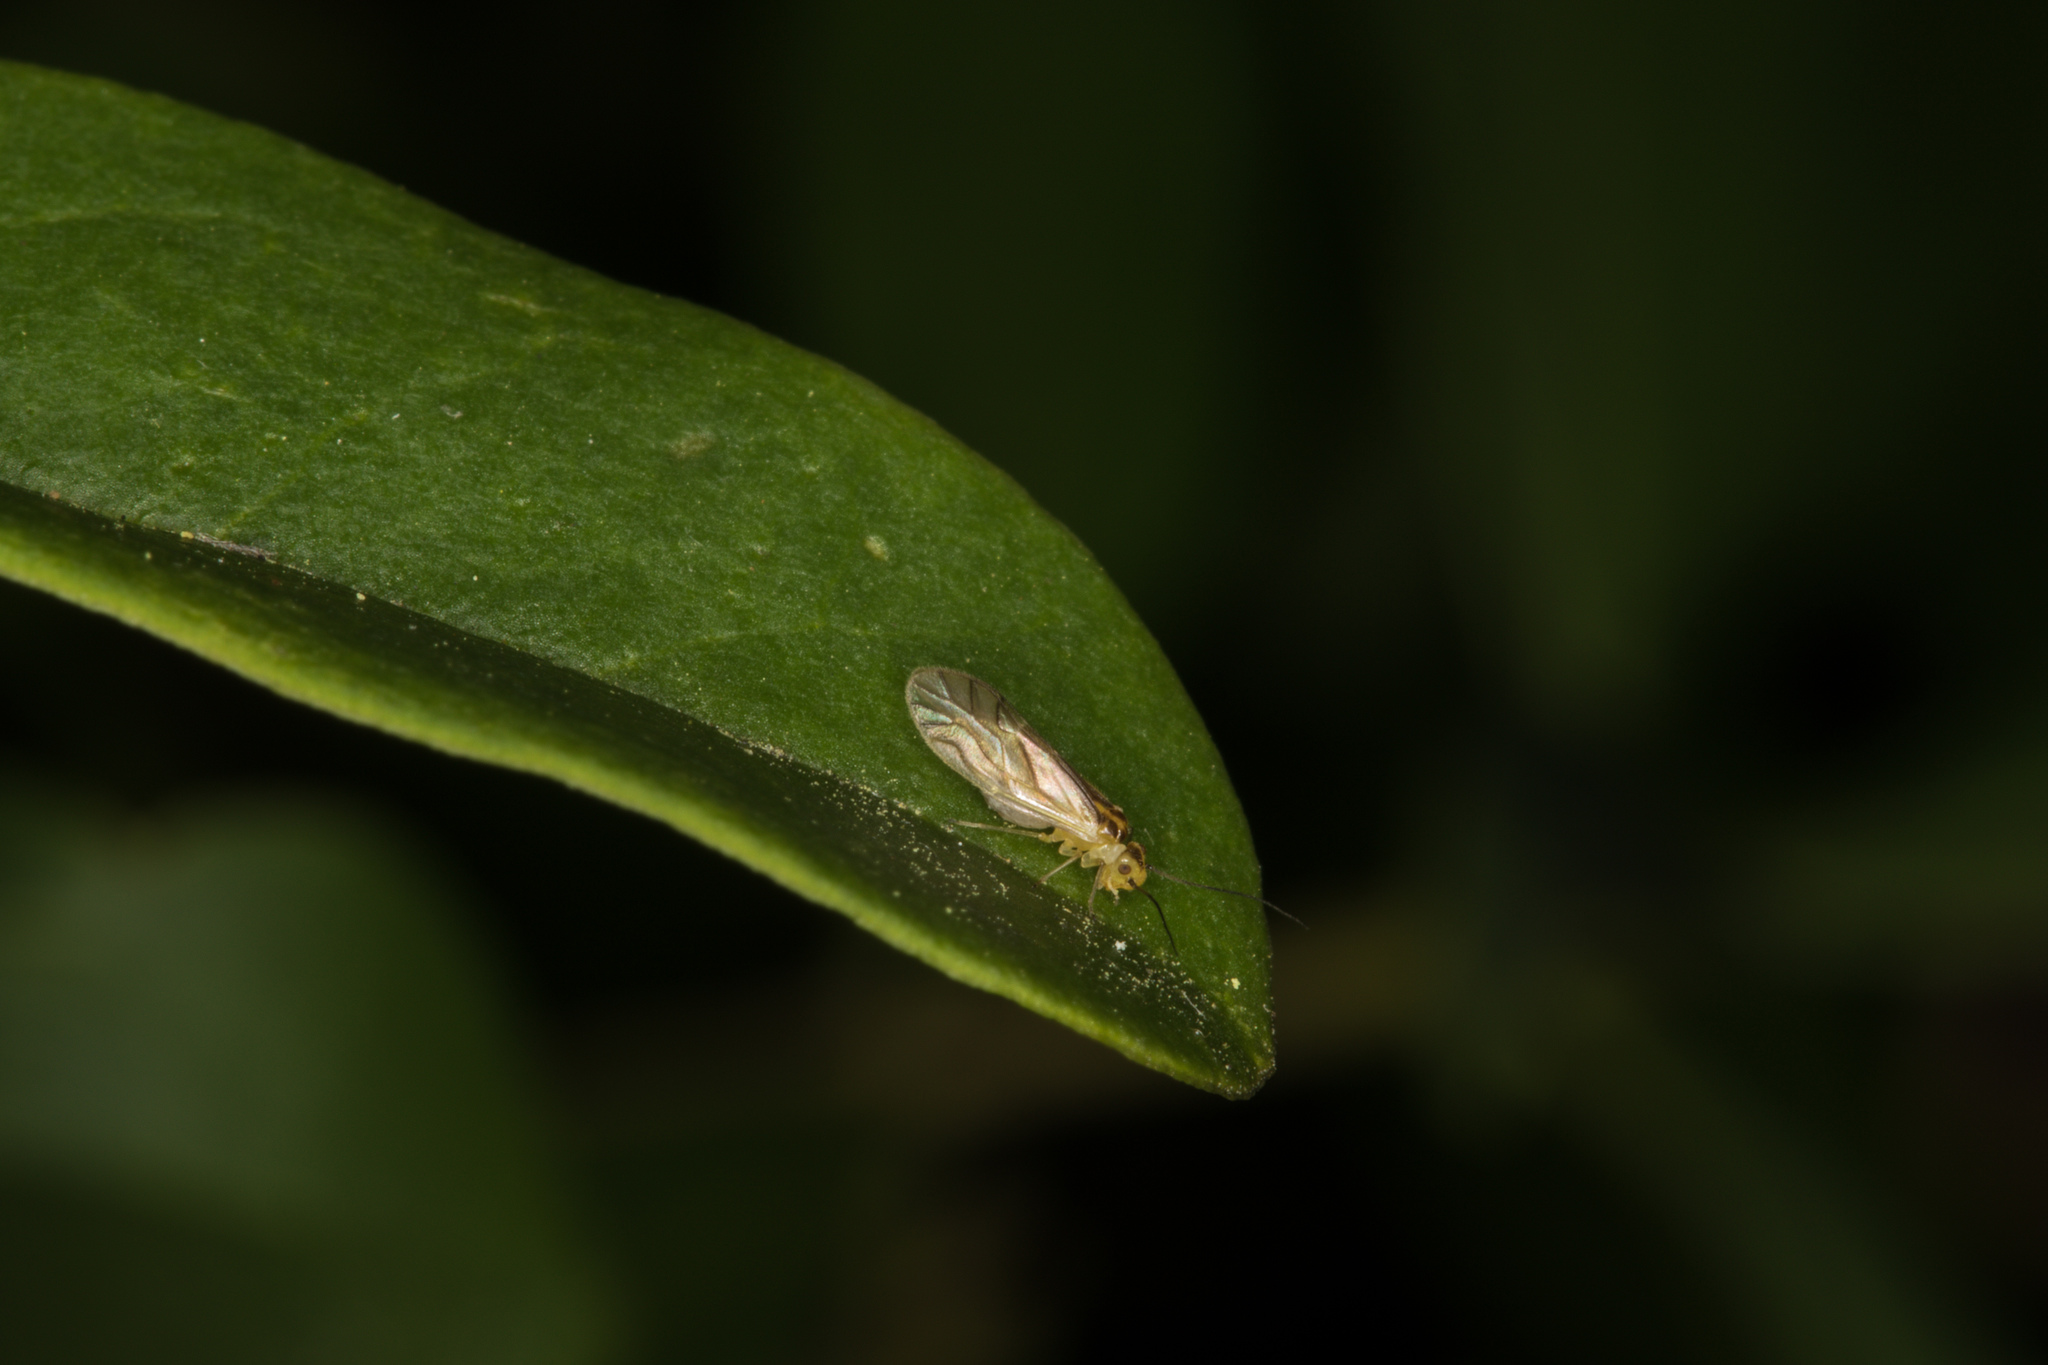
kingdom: Animalia
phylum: Arthropoda
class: Insecta
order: Psocodea
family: Caeciliusidae
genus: Valenzuela
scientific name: Valenzuela flavidus
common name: Yellow barklouse
